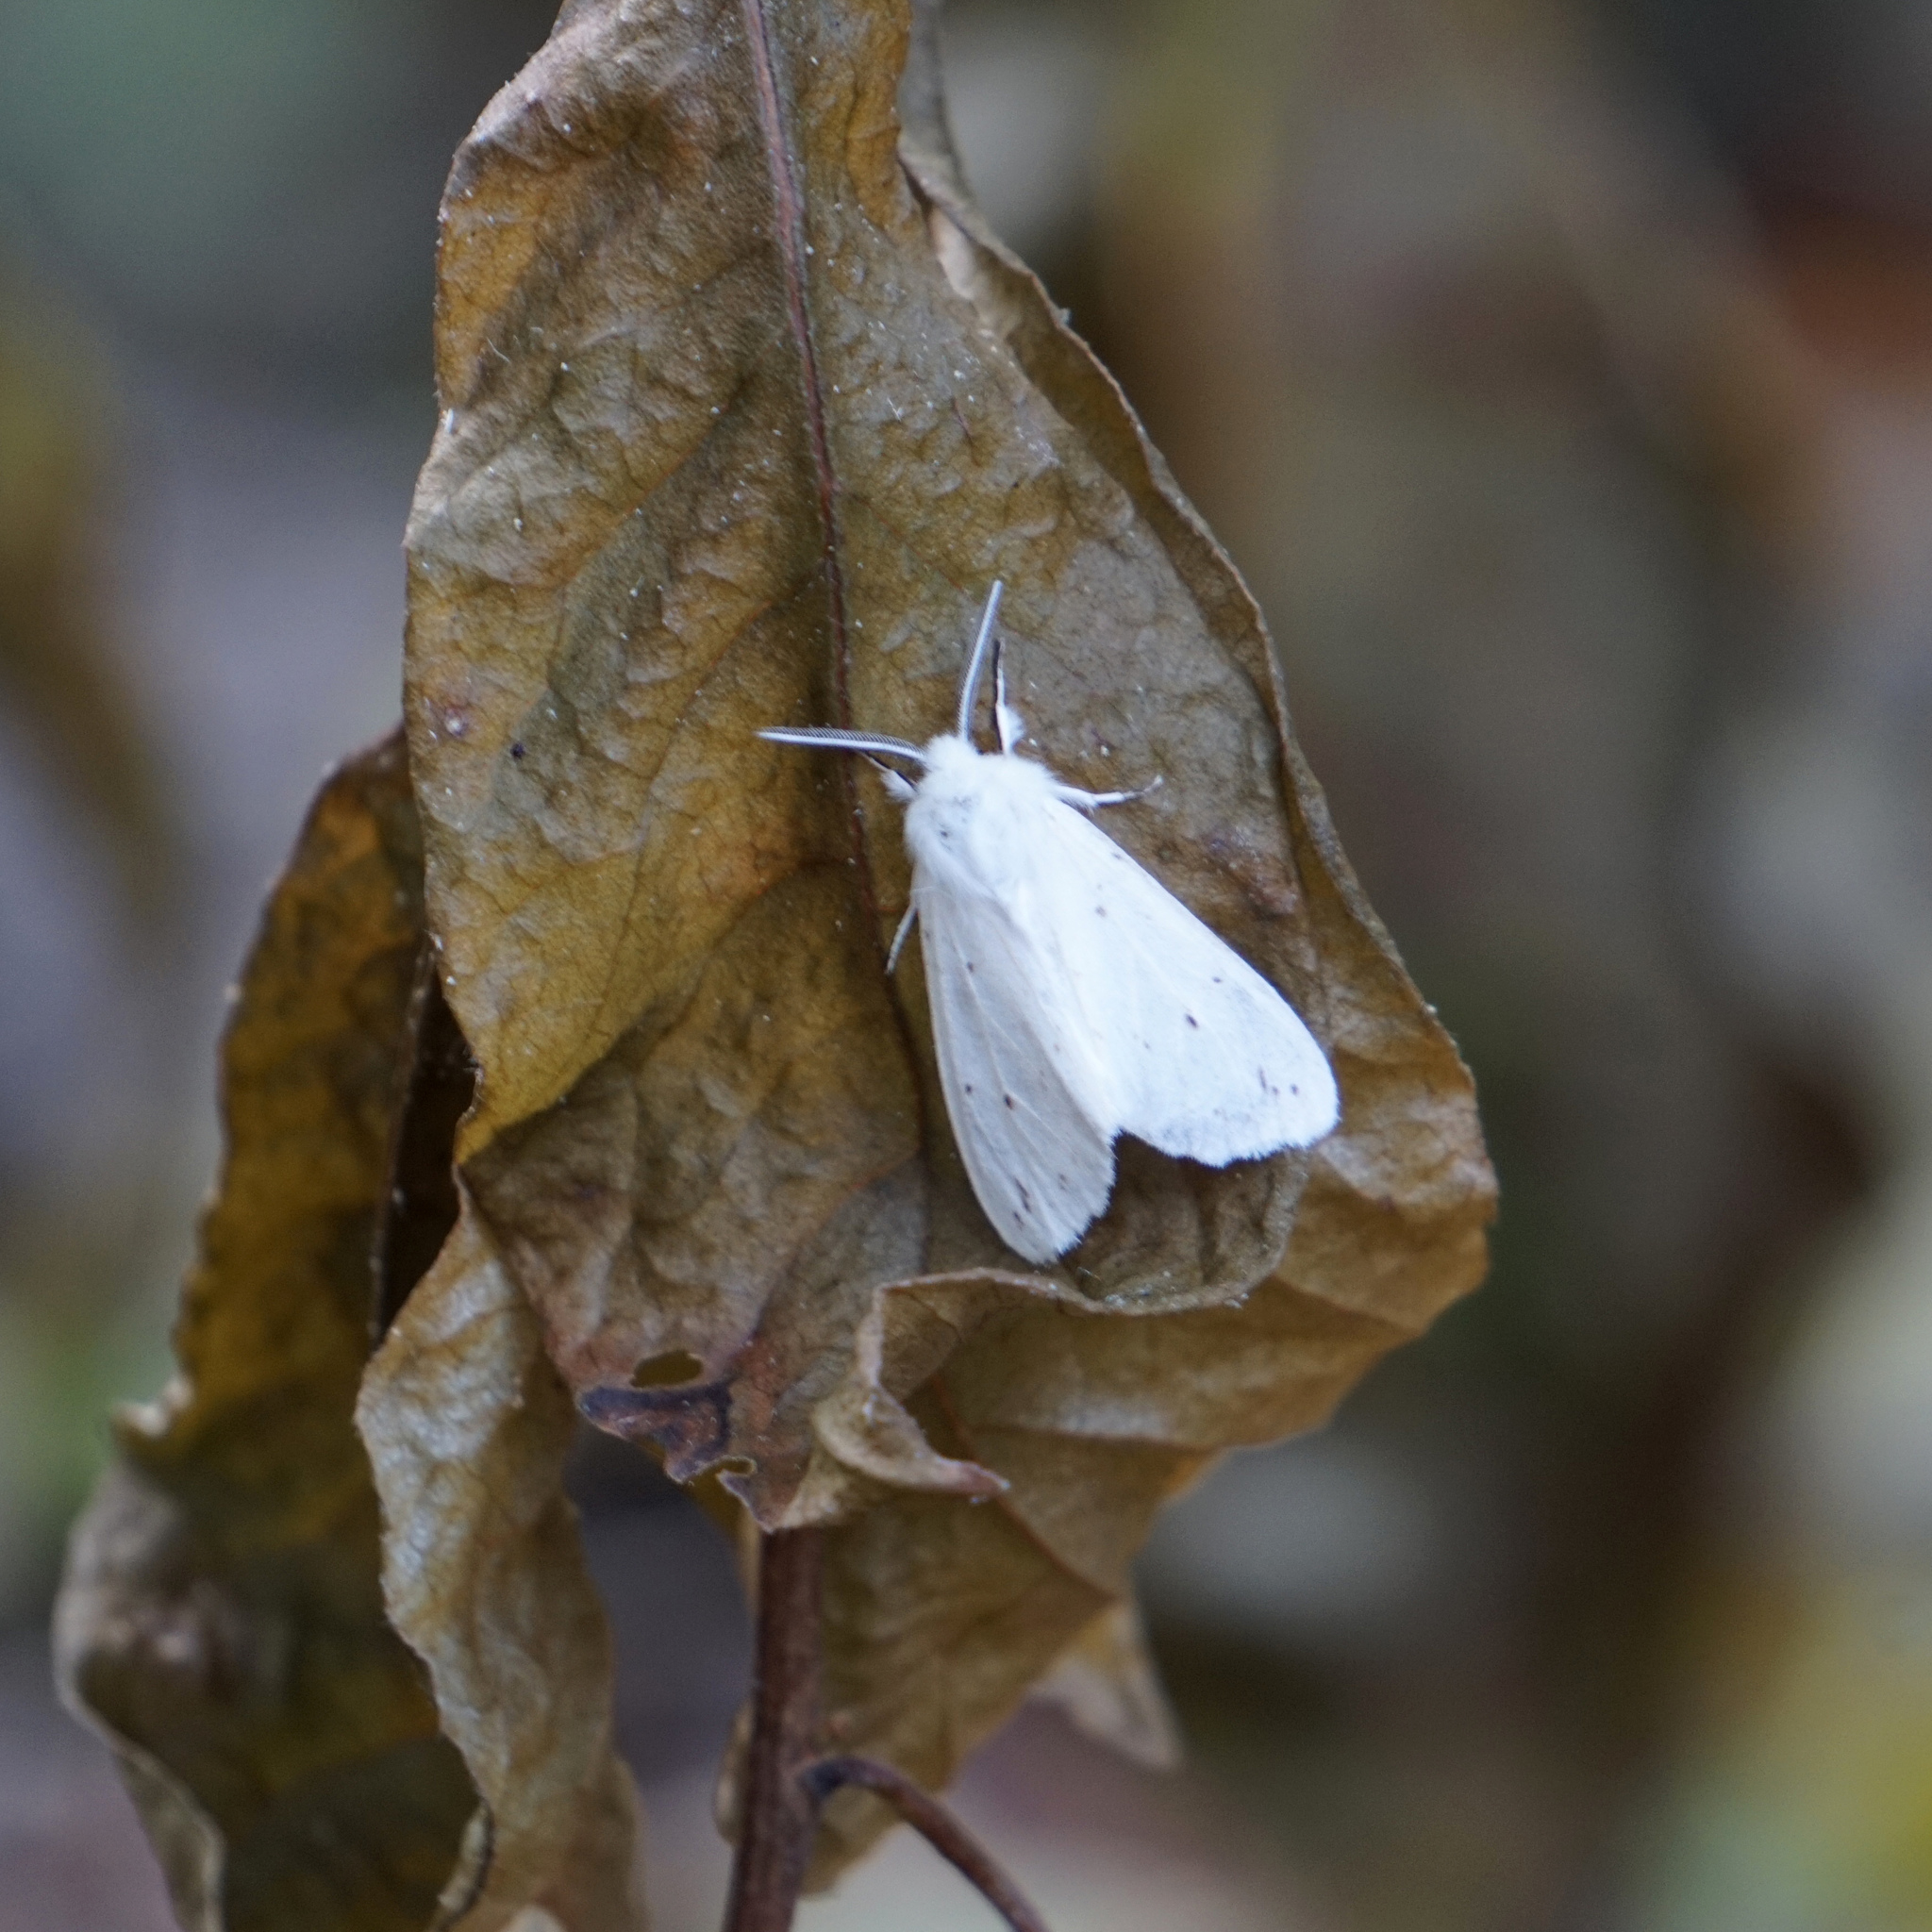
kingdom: Animalia
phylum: Arthropoda
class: Insecta
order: Lepidoptera
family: Erebidae
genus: Spilosoma
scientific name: Spilosoma congrua
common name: Agreeable tiger moth
